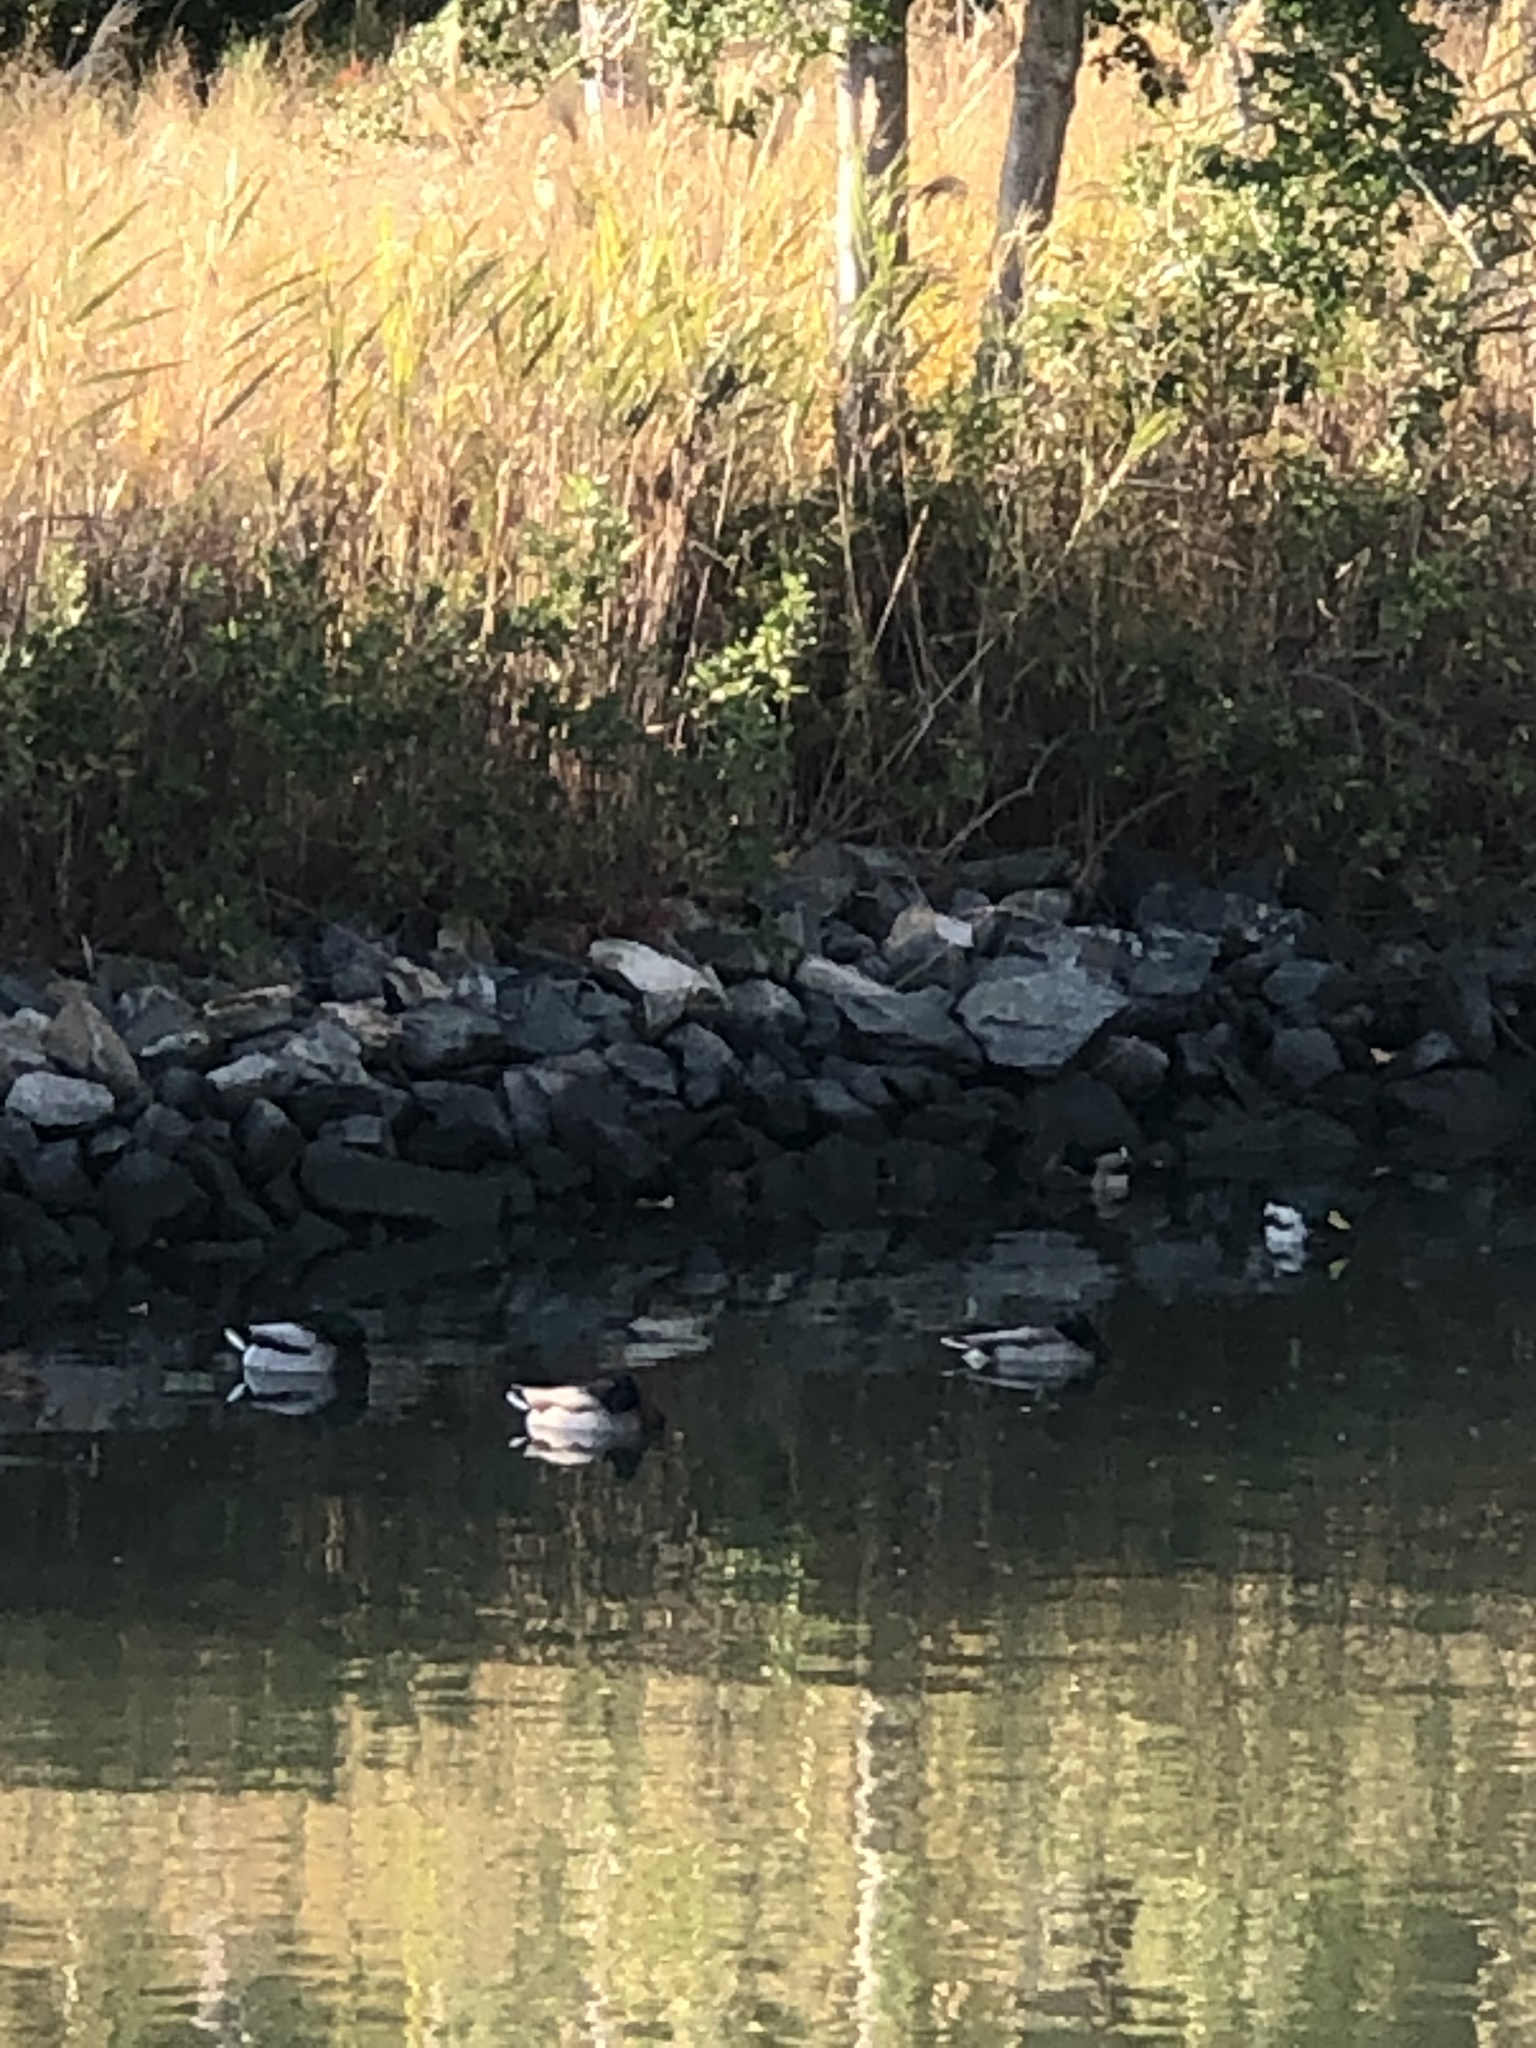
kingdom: Animalia
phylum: Chordata
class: Aves
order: Anseriformes
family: Anatidae
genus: Anas
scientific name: Anas platyrhynchos
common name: Mallard
